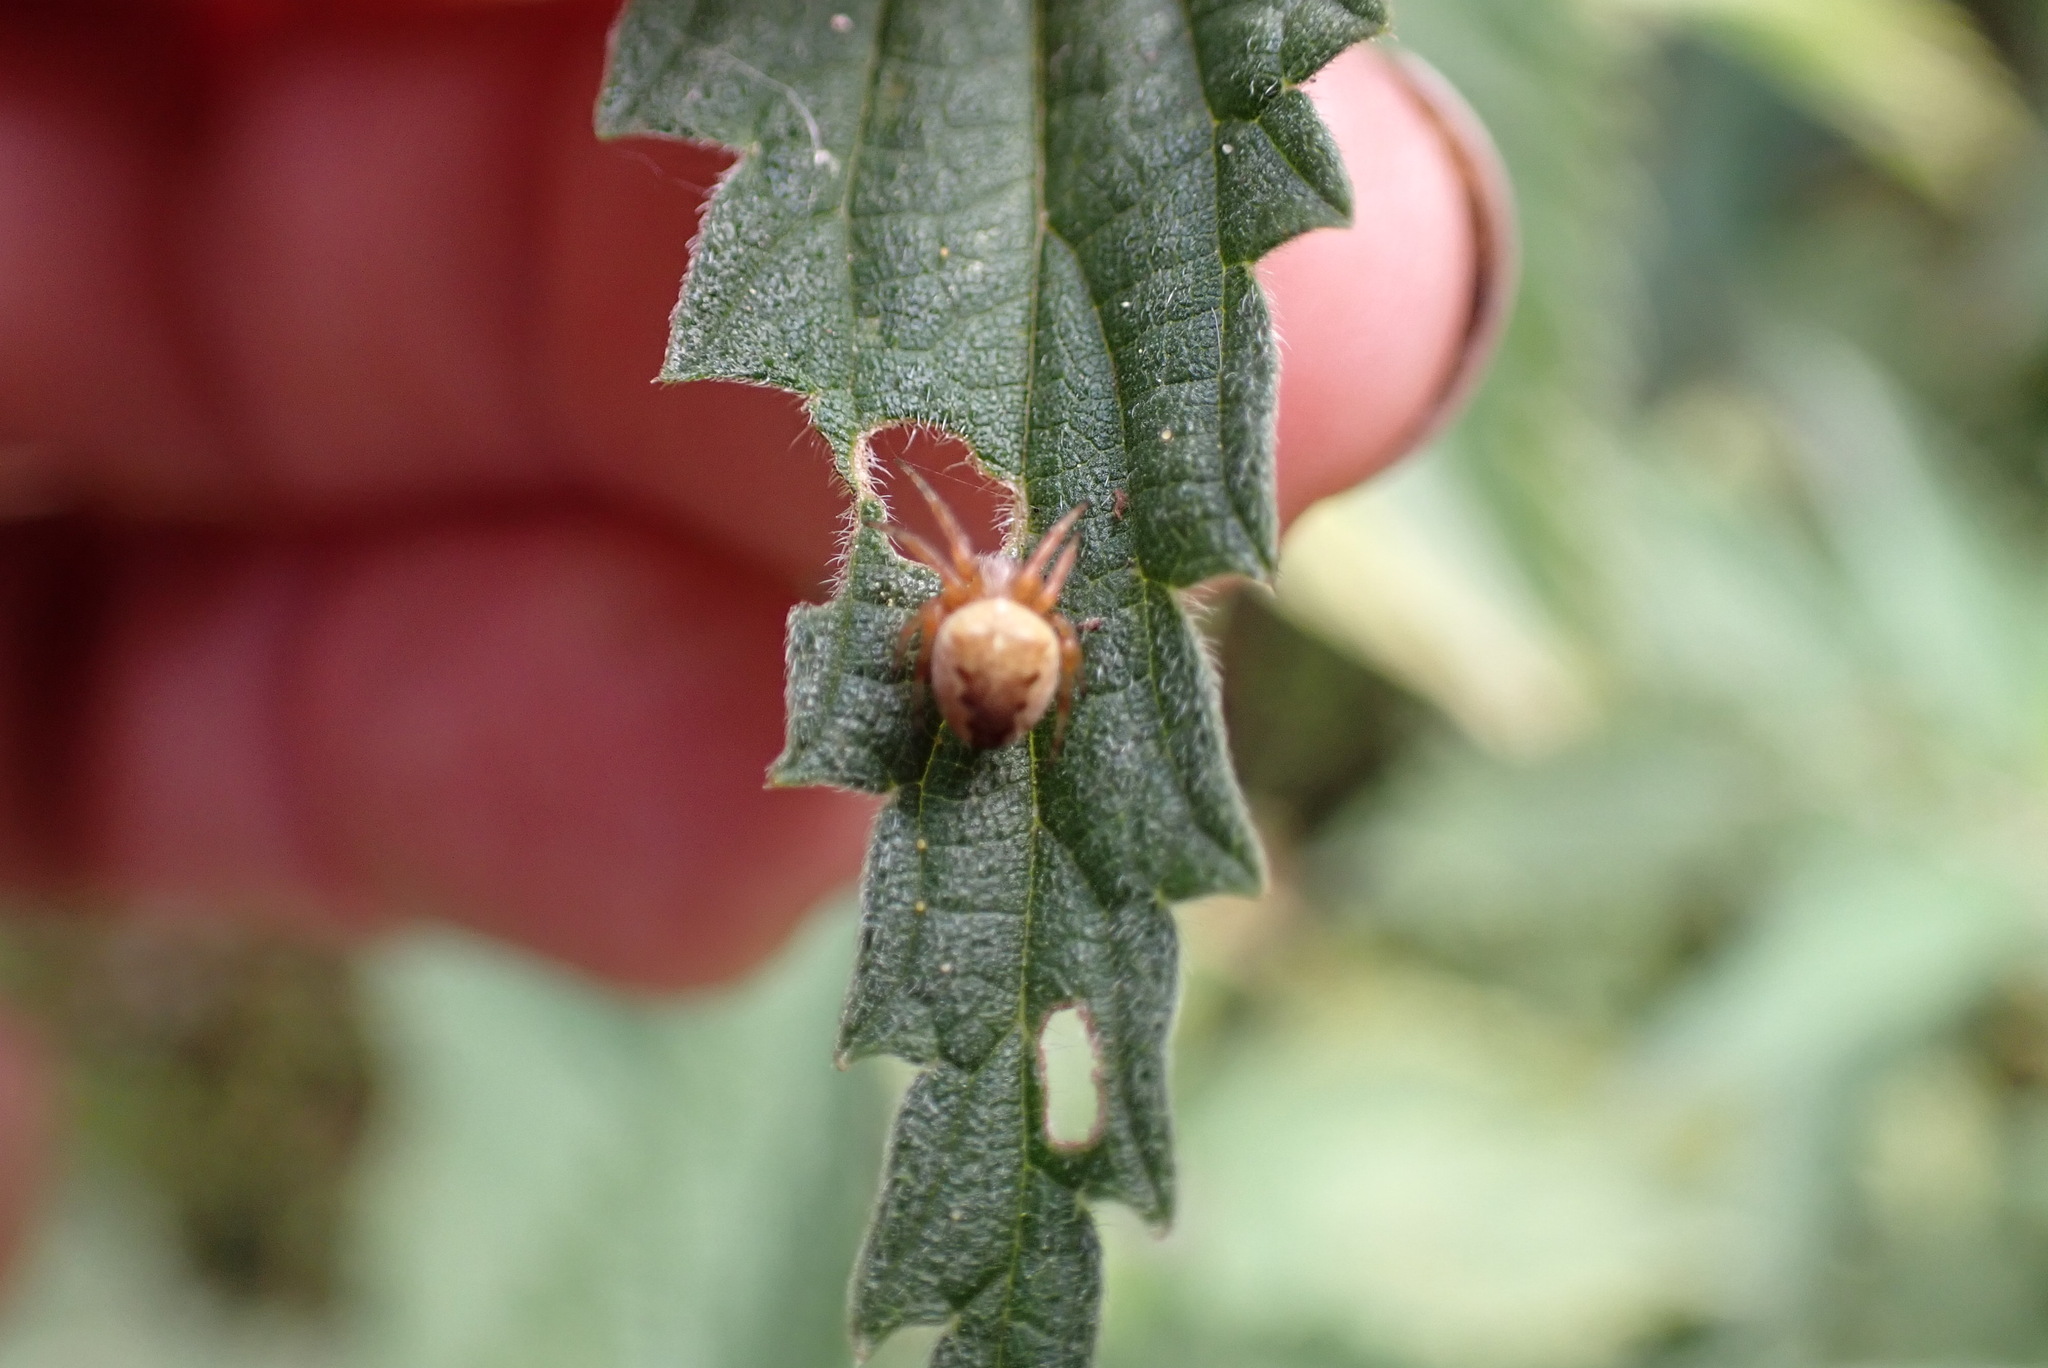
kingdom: Animalia
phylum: Arthropoda
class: Arachnida
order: Araneae
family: Araneidae
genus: Araneus
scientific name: Araneus diadematus
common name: Cross orbweaver
